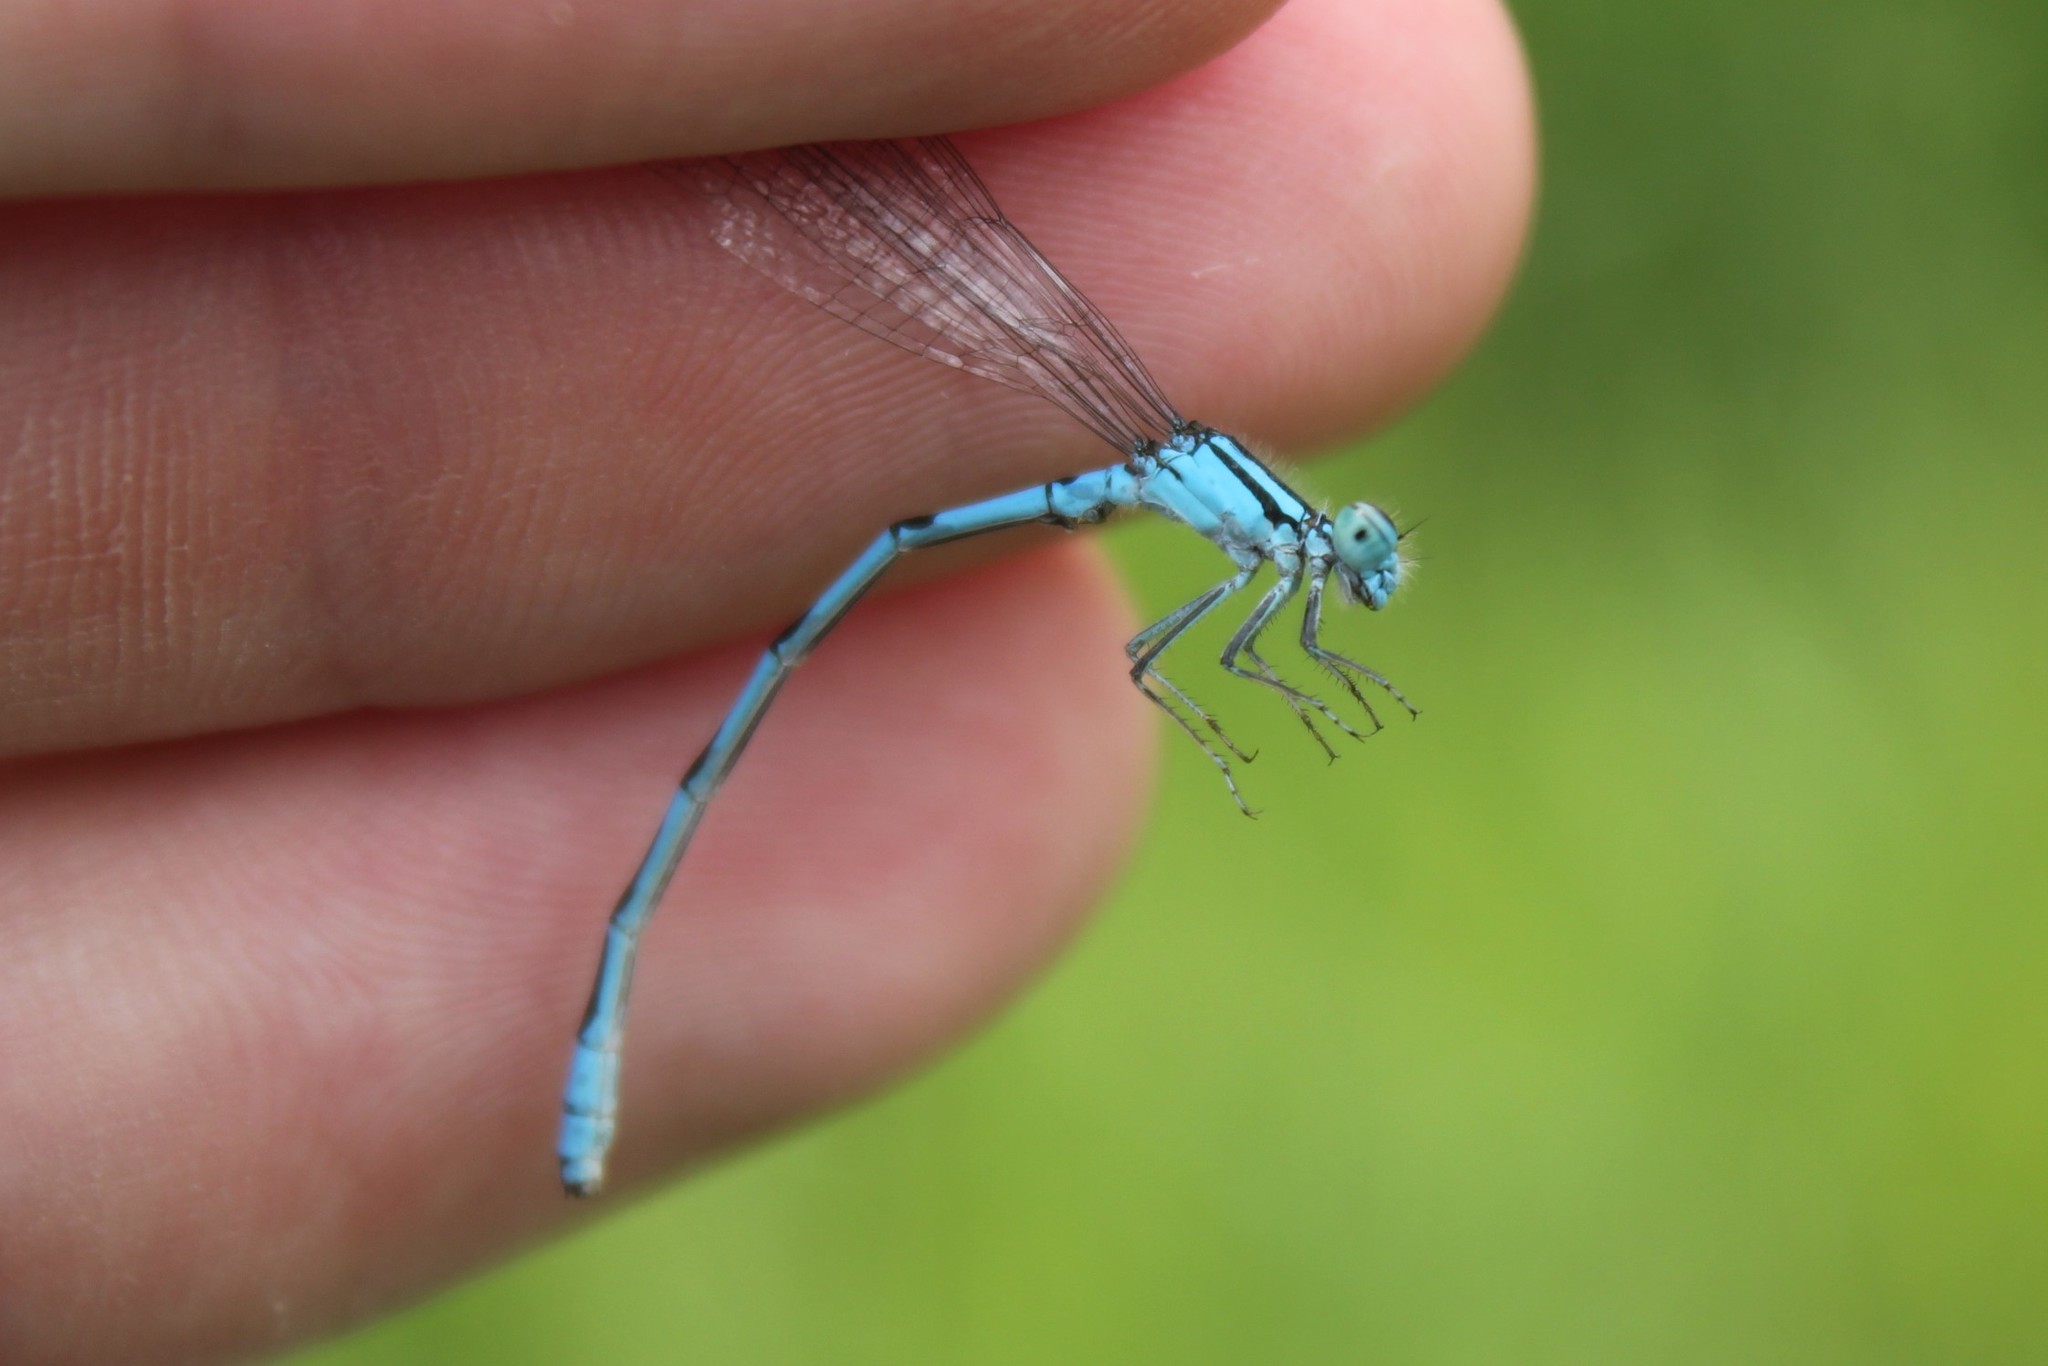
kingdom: Animalia
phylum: Arthropoda
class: Insecta
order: Odonata
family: Coenagrionidae
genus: Enallagma
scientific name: Enallagma ebrium
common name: Marsh bluet
